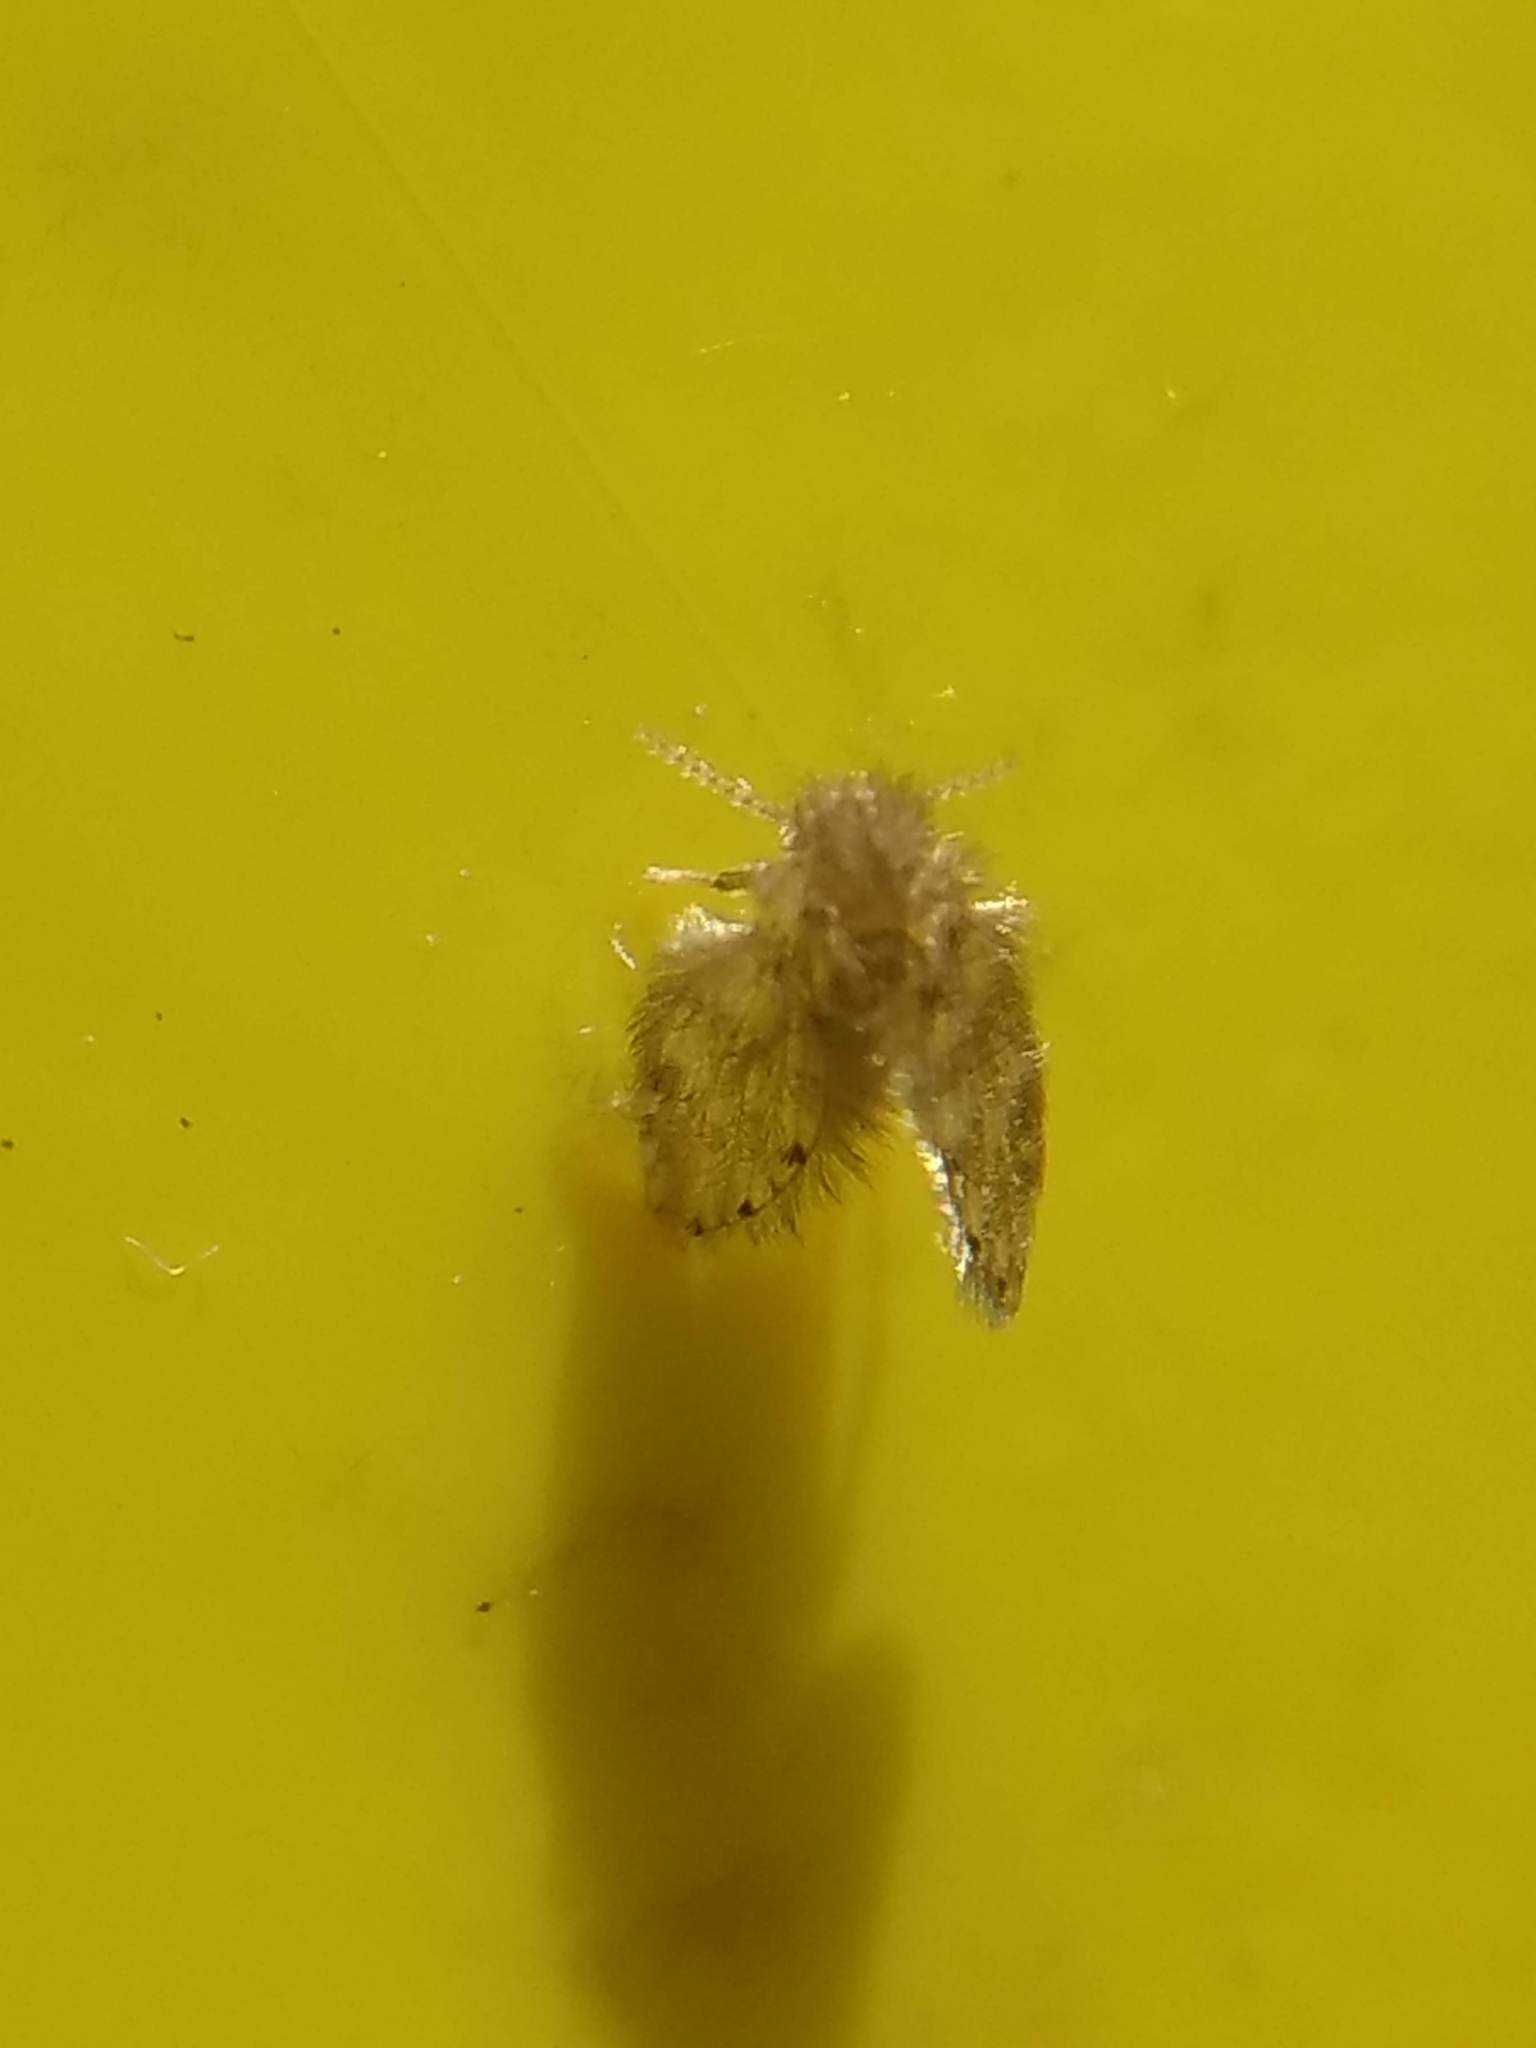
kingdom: Animalia
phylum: Arthropoda
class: Insecta
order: Diptera
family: Psychodidae
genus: Psychoda
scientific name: Psychoda alternata
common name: Moth fly
